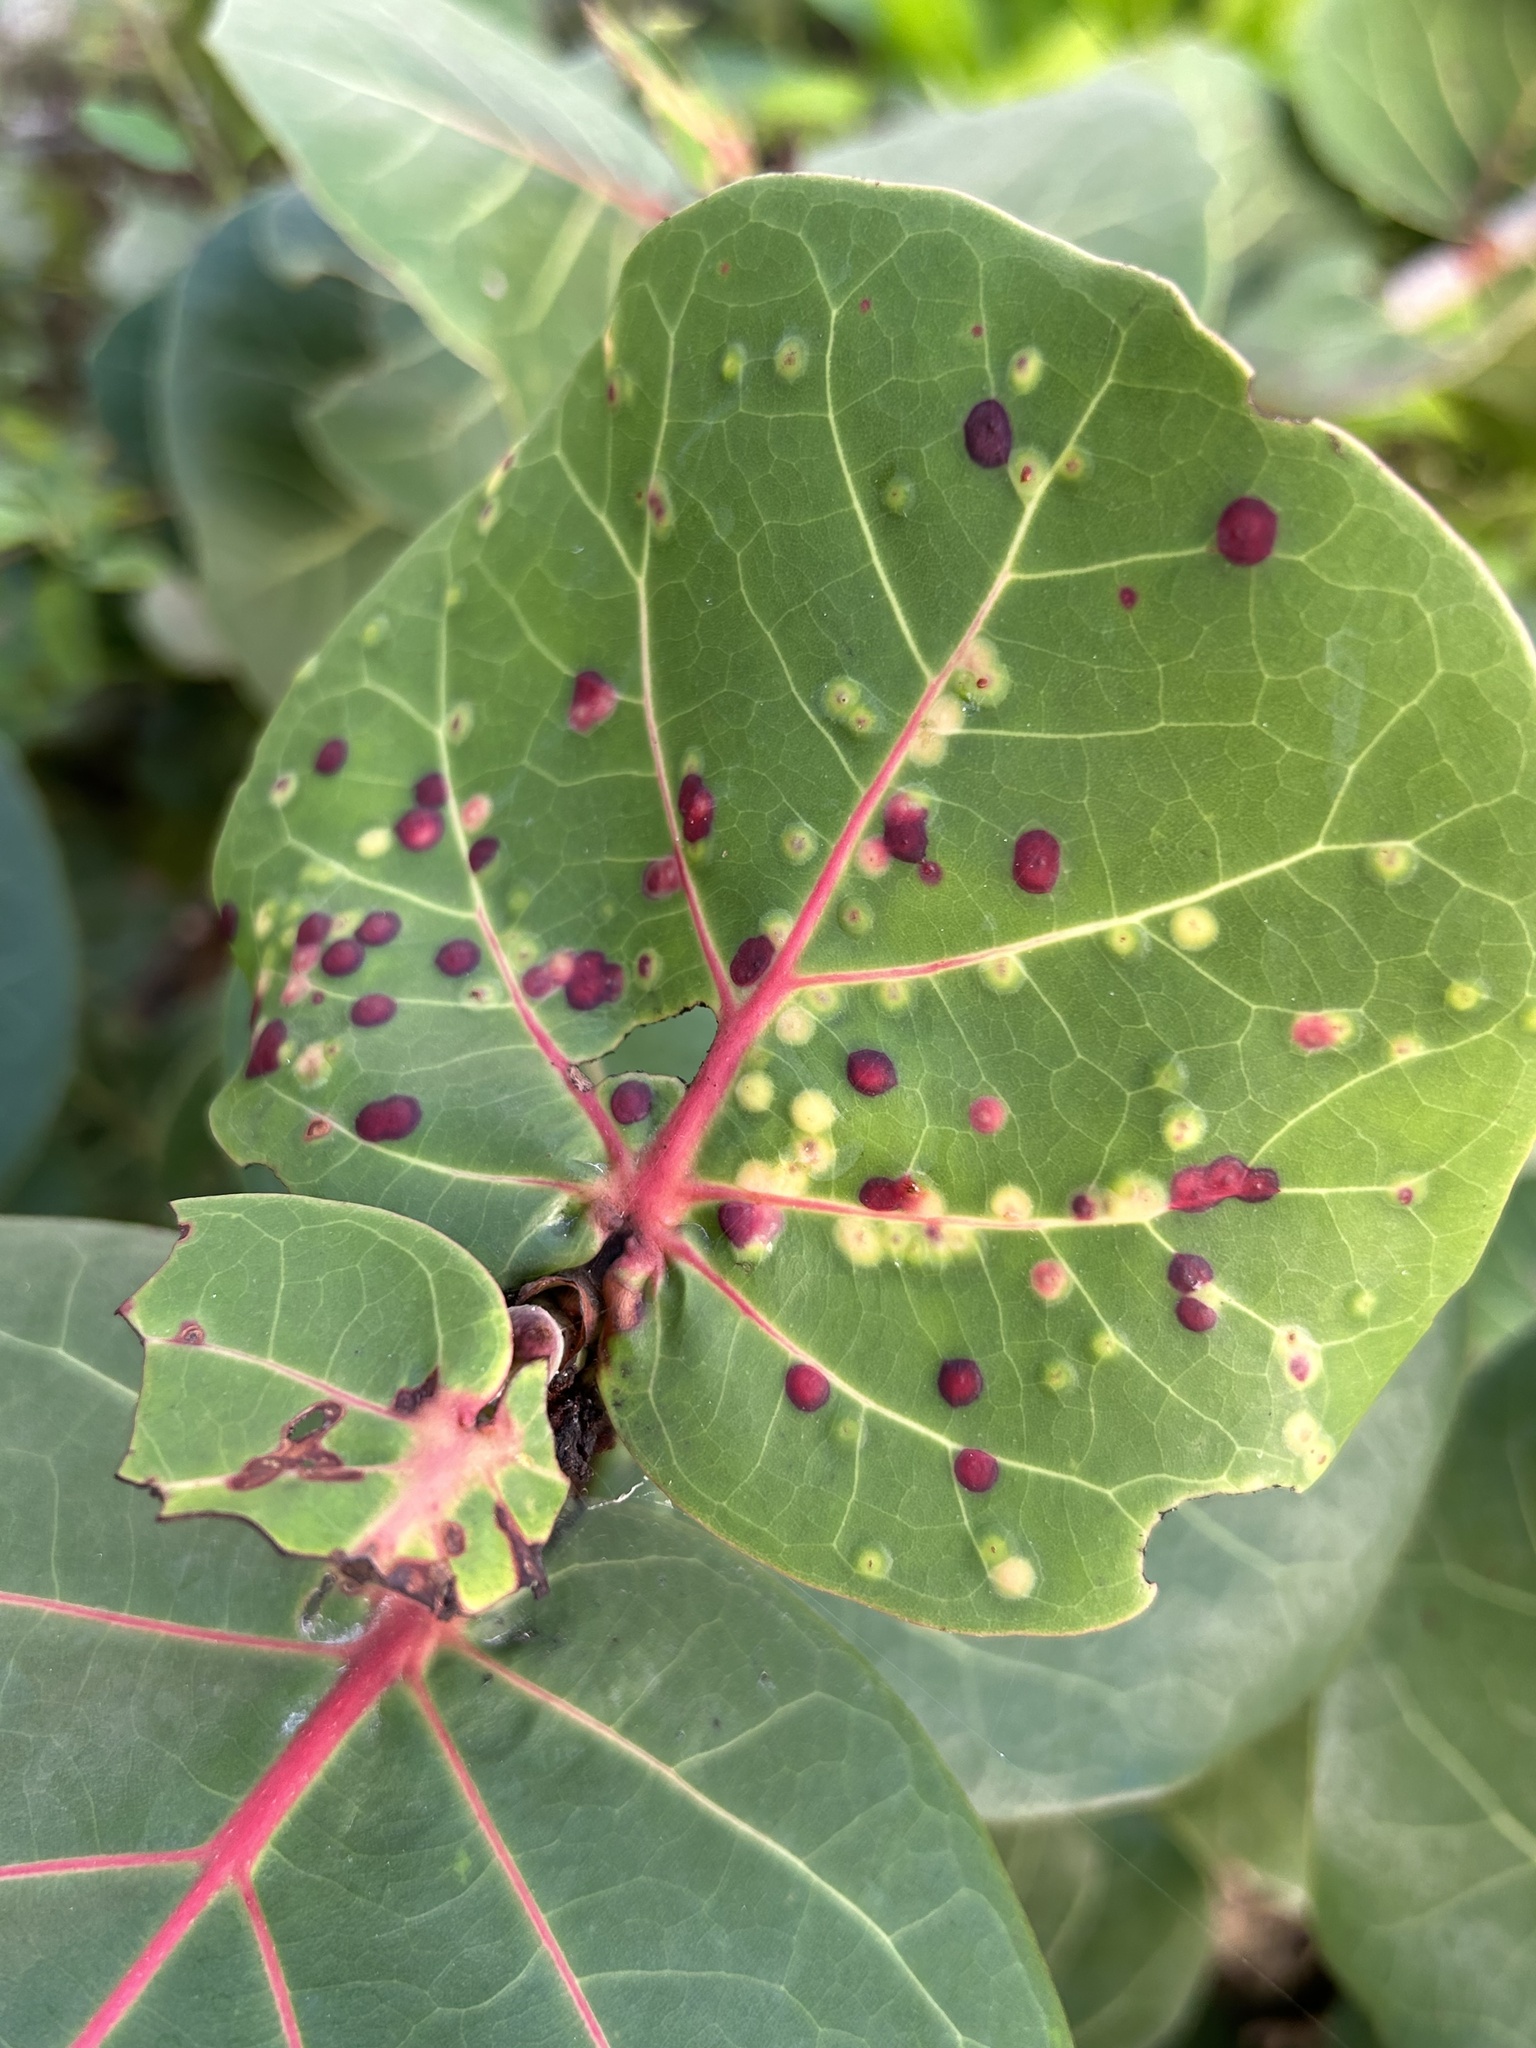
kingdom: Animalia
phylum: Arthropoda
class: Insecta
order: Diptera
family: Cecidomyiidae
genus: Ctenodactylomyia
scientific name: Ctenodactylomyia watsoni
